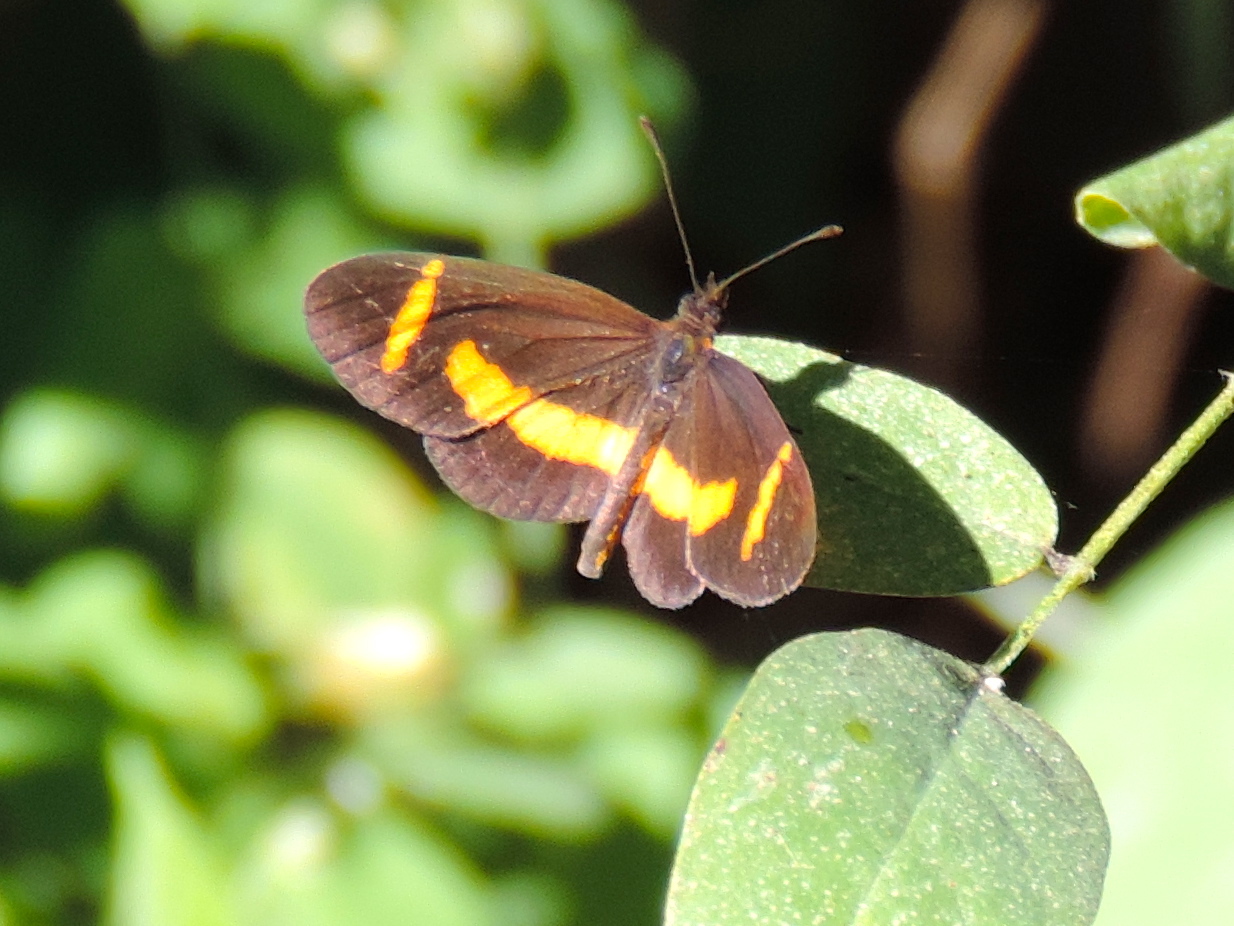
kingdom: Animalia
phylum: Arthropoda
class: Insecta
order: Lepidoptera
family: Nymphalidae
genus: Microtia
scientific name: Microtia elva
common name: Elf
